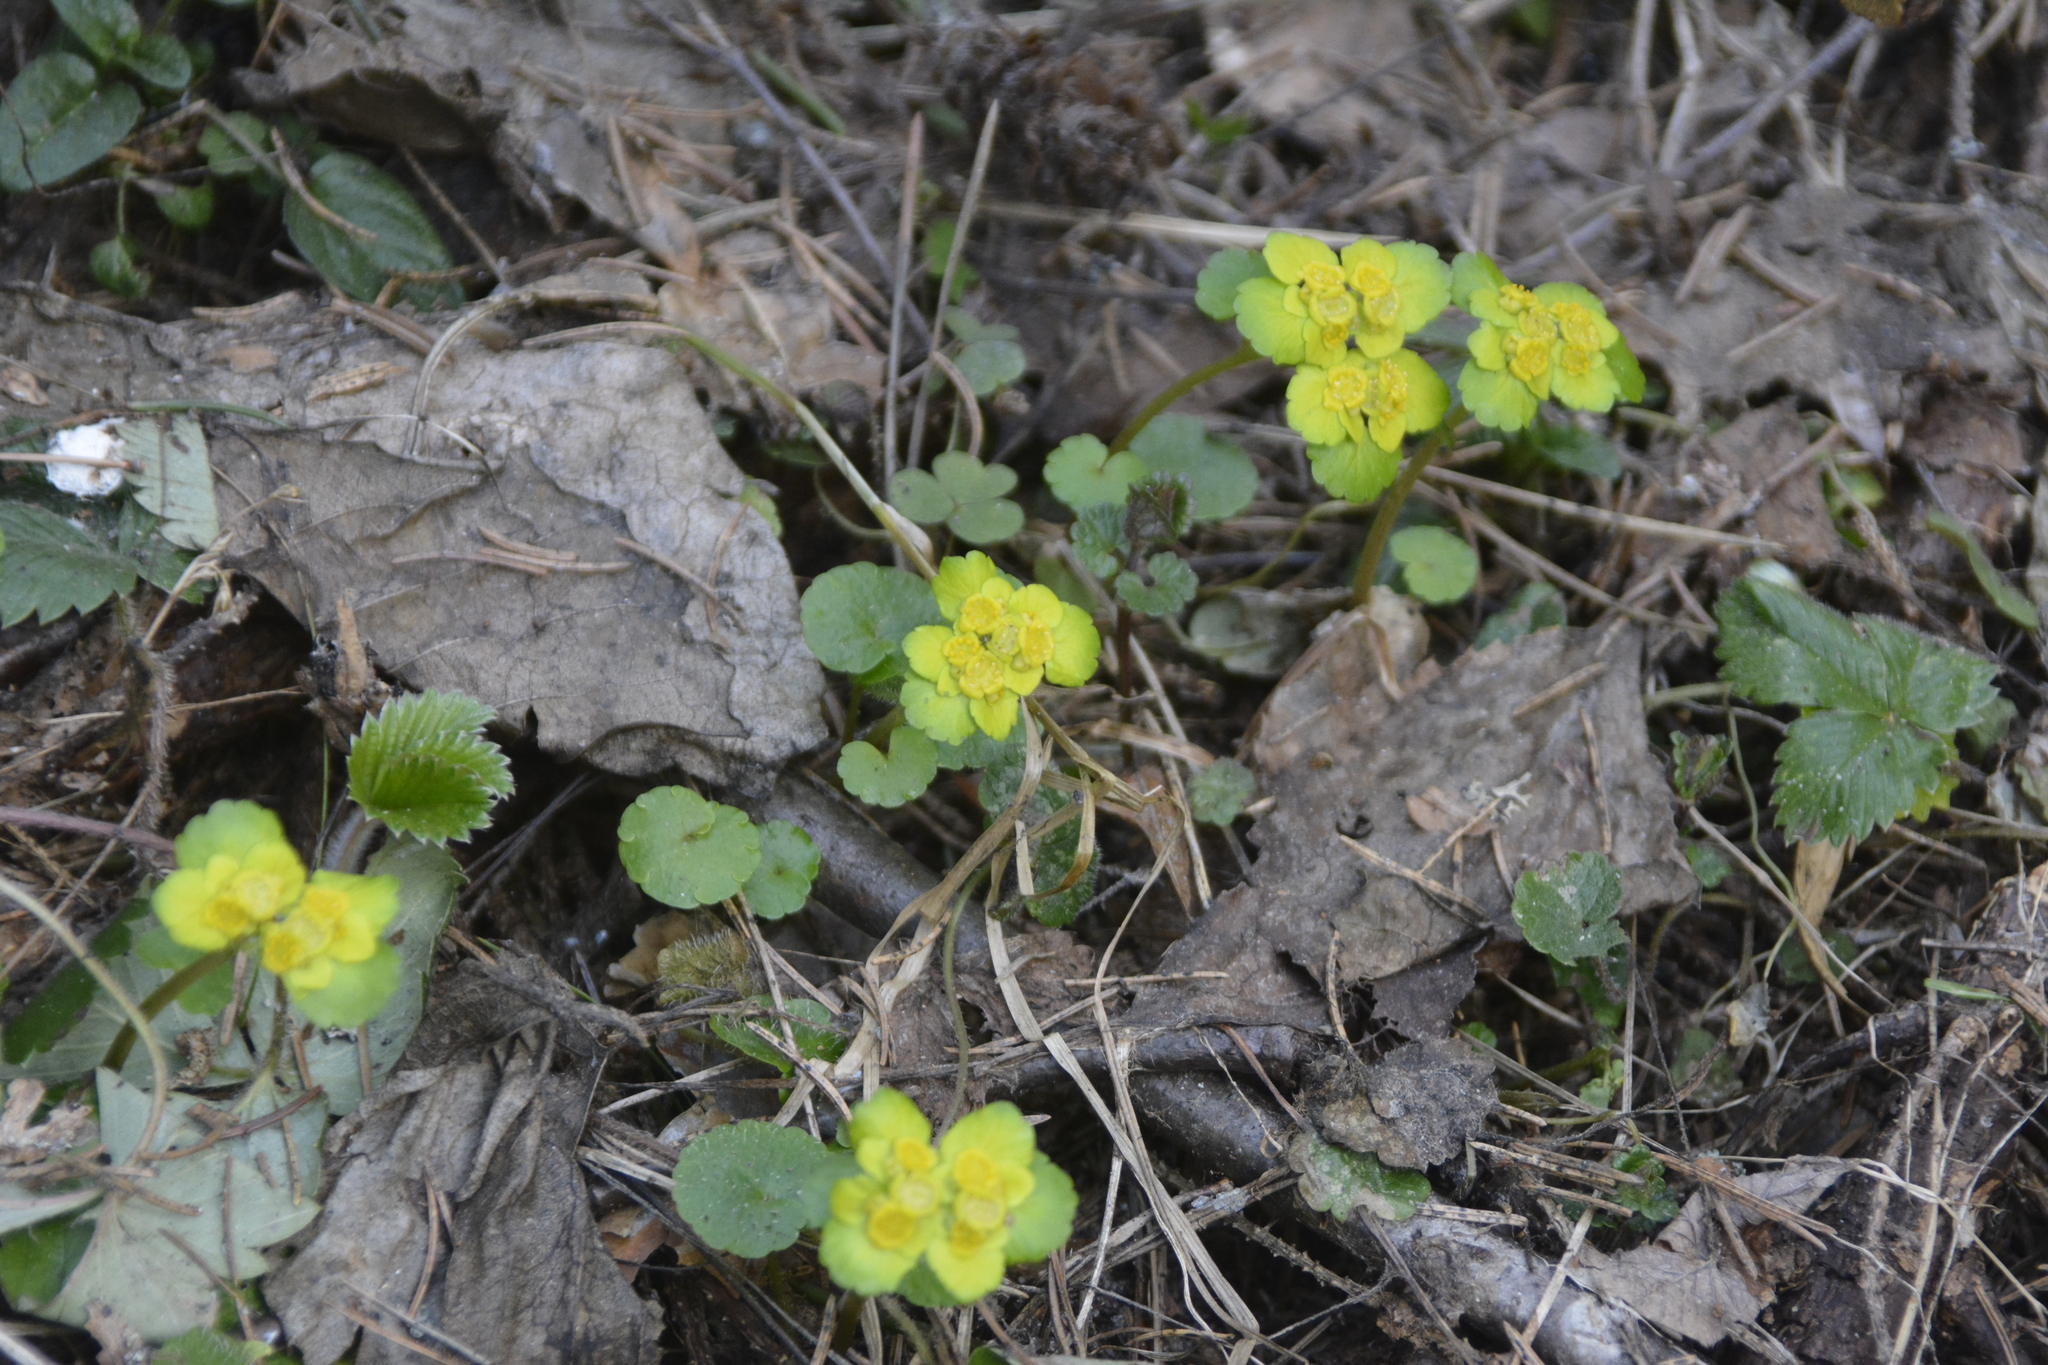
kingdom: Plantae
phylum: Tracheophyta
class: Magnoliopsida
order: Saxifragales
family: Saxifragaceae
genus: Chrysosplenium
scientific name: Chrysosplenium alternifolium
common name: Alternate-leaved golden-saxifrage
